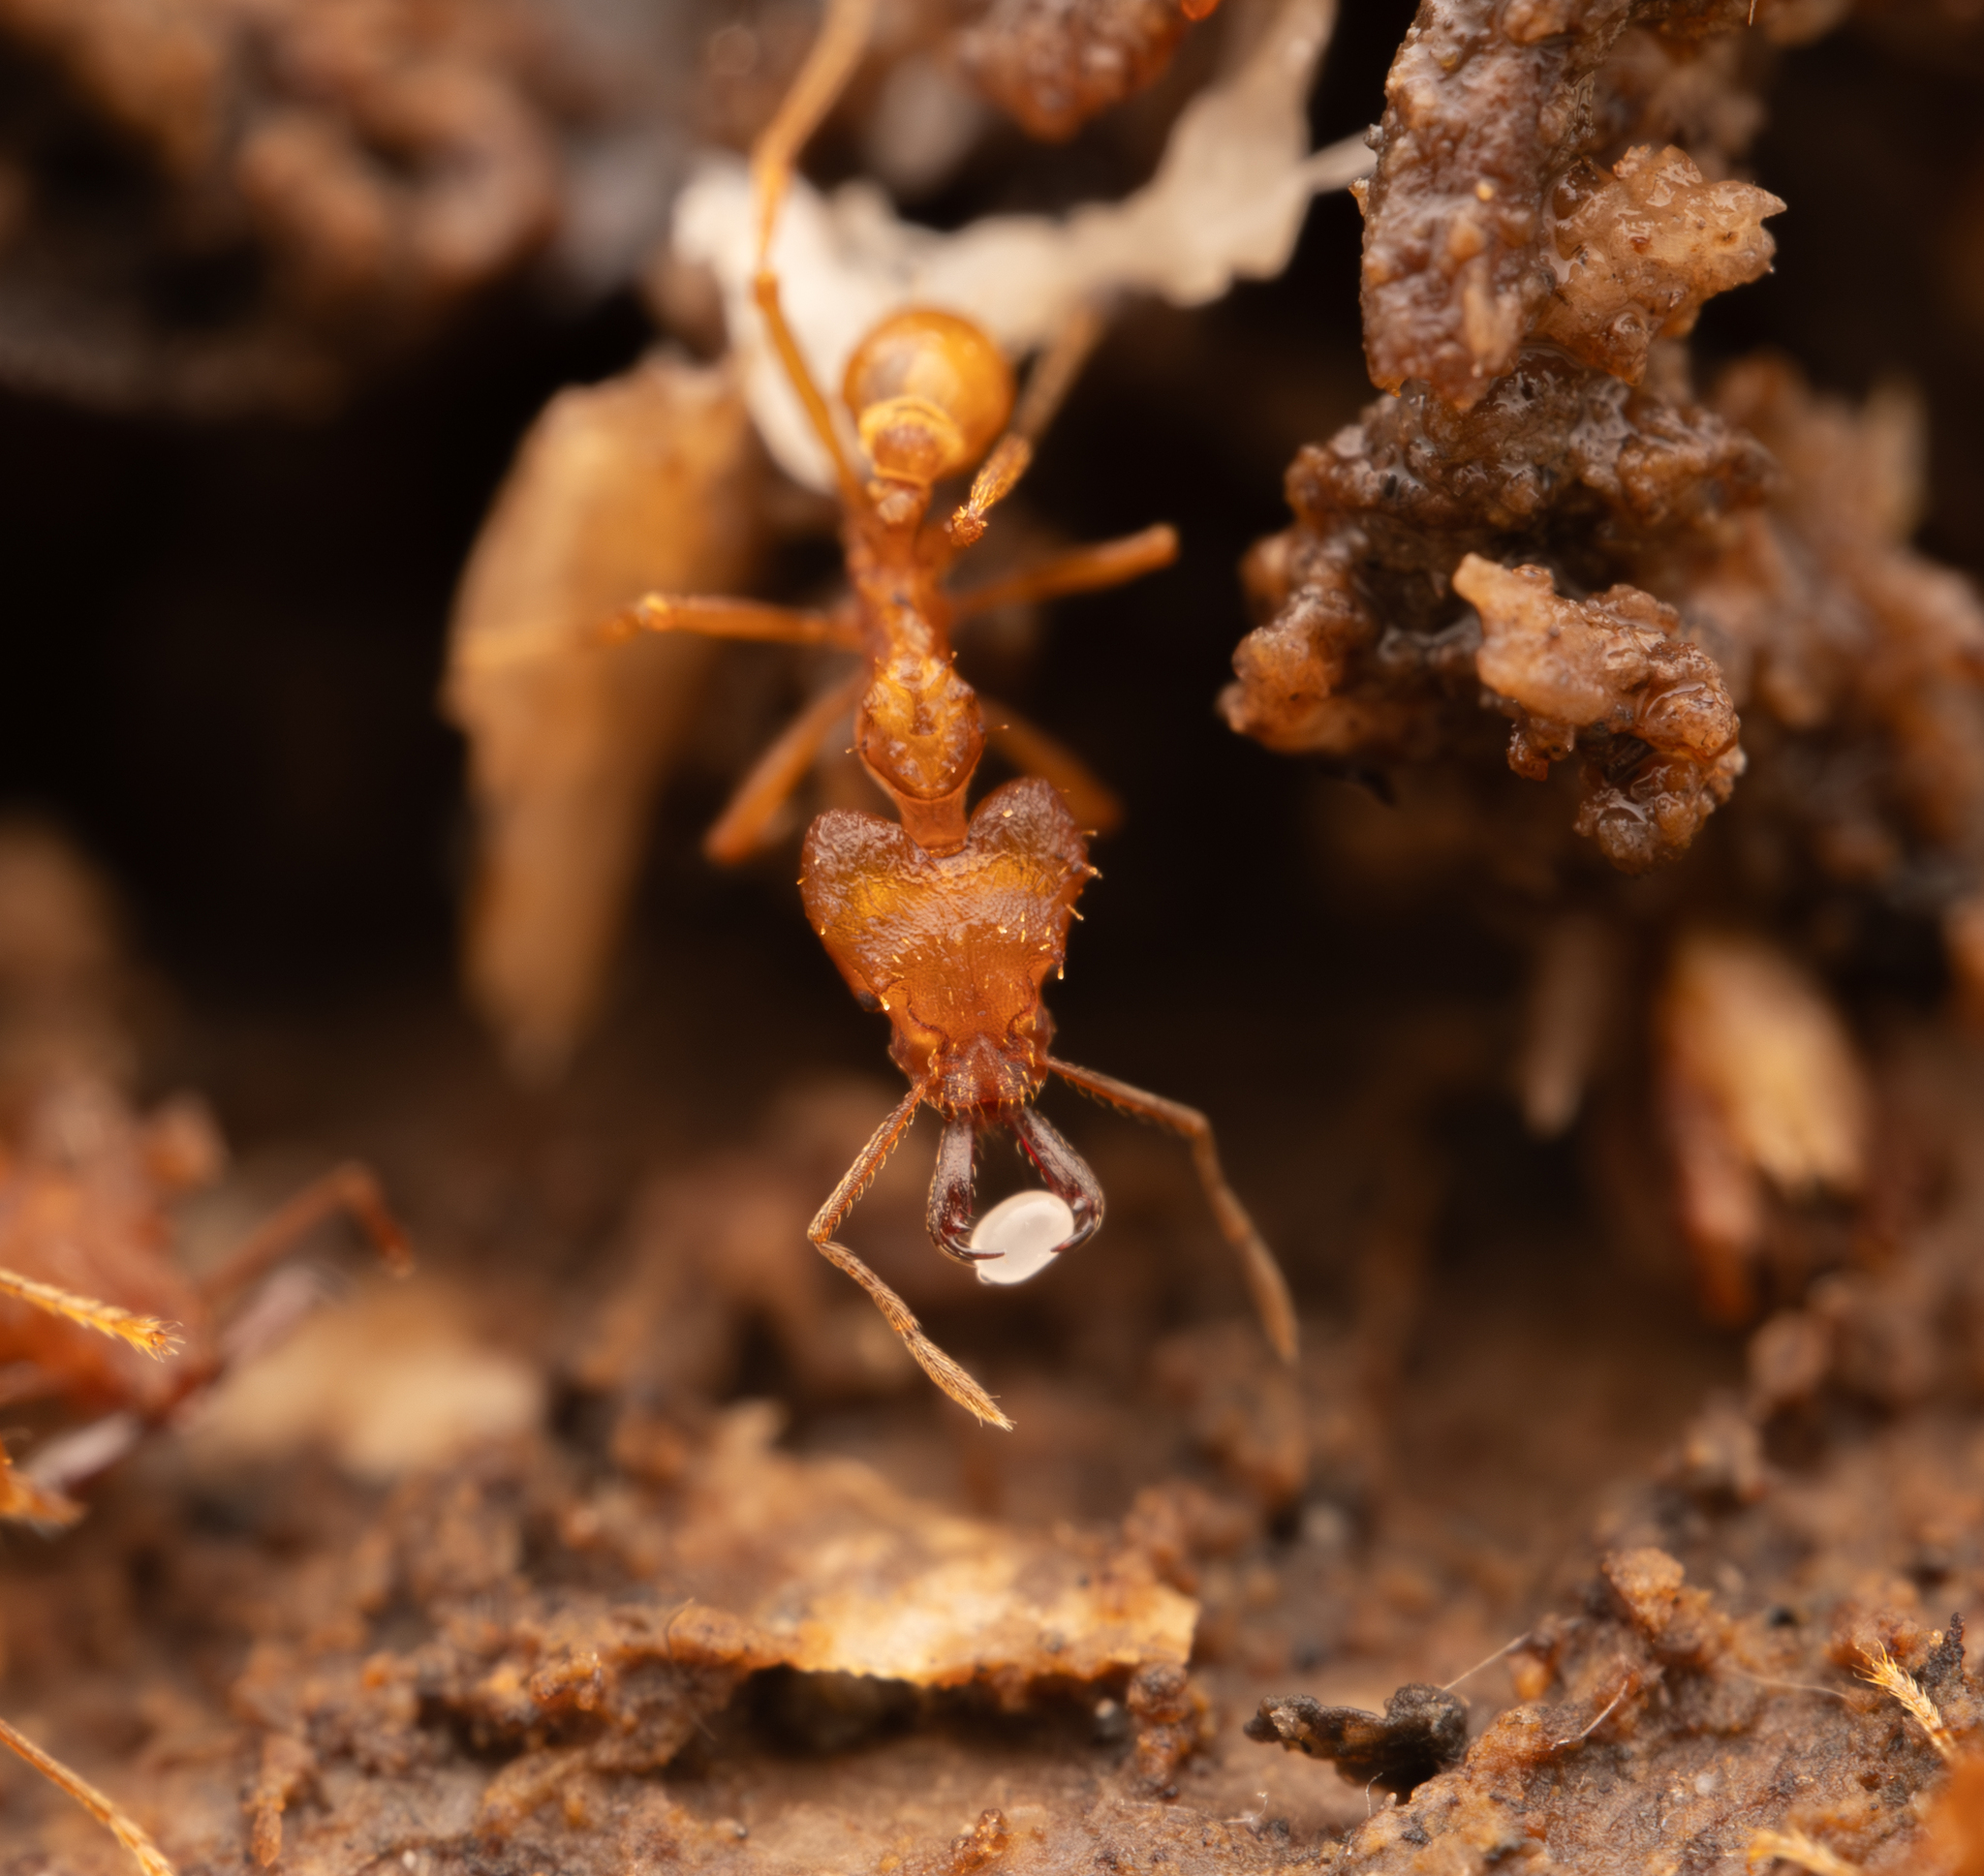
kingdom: Animalia
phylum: Arthropoda
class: Insecta
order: Hymenoptera
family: Formicidae
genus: Strumigenys
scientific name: Strumigenys loriae
